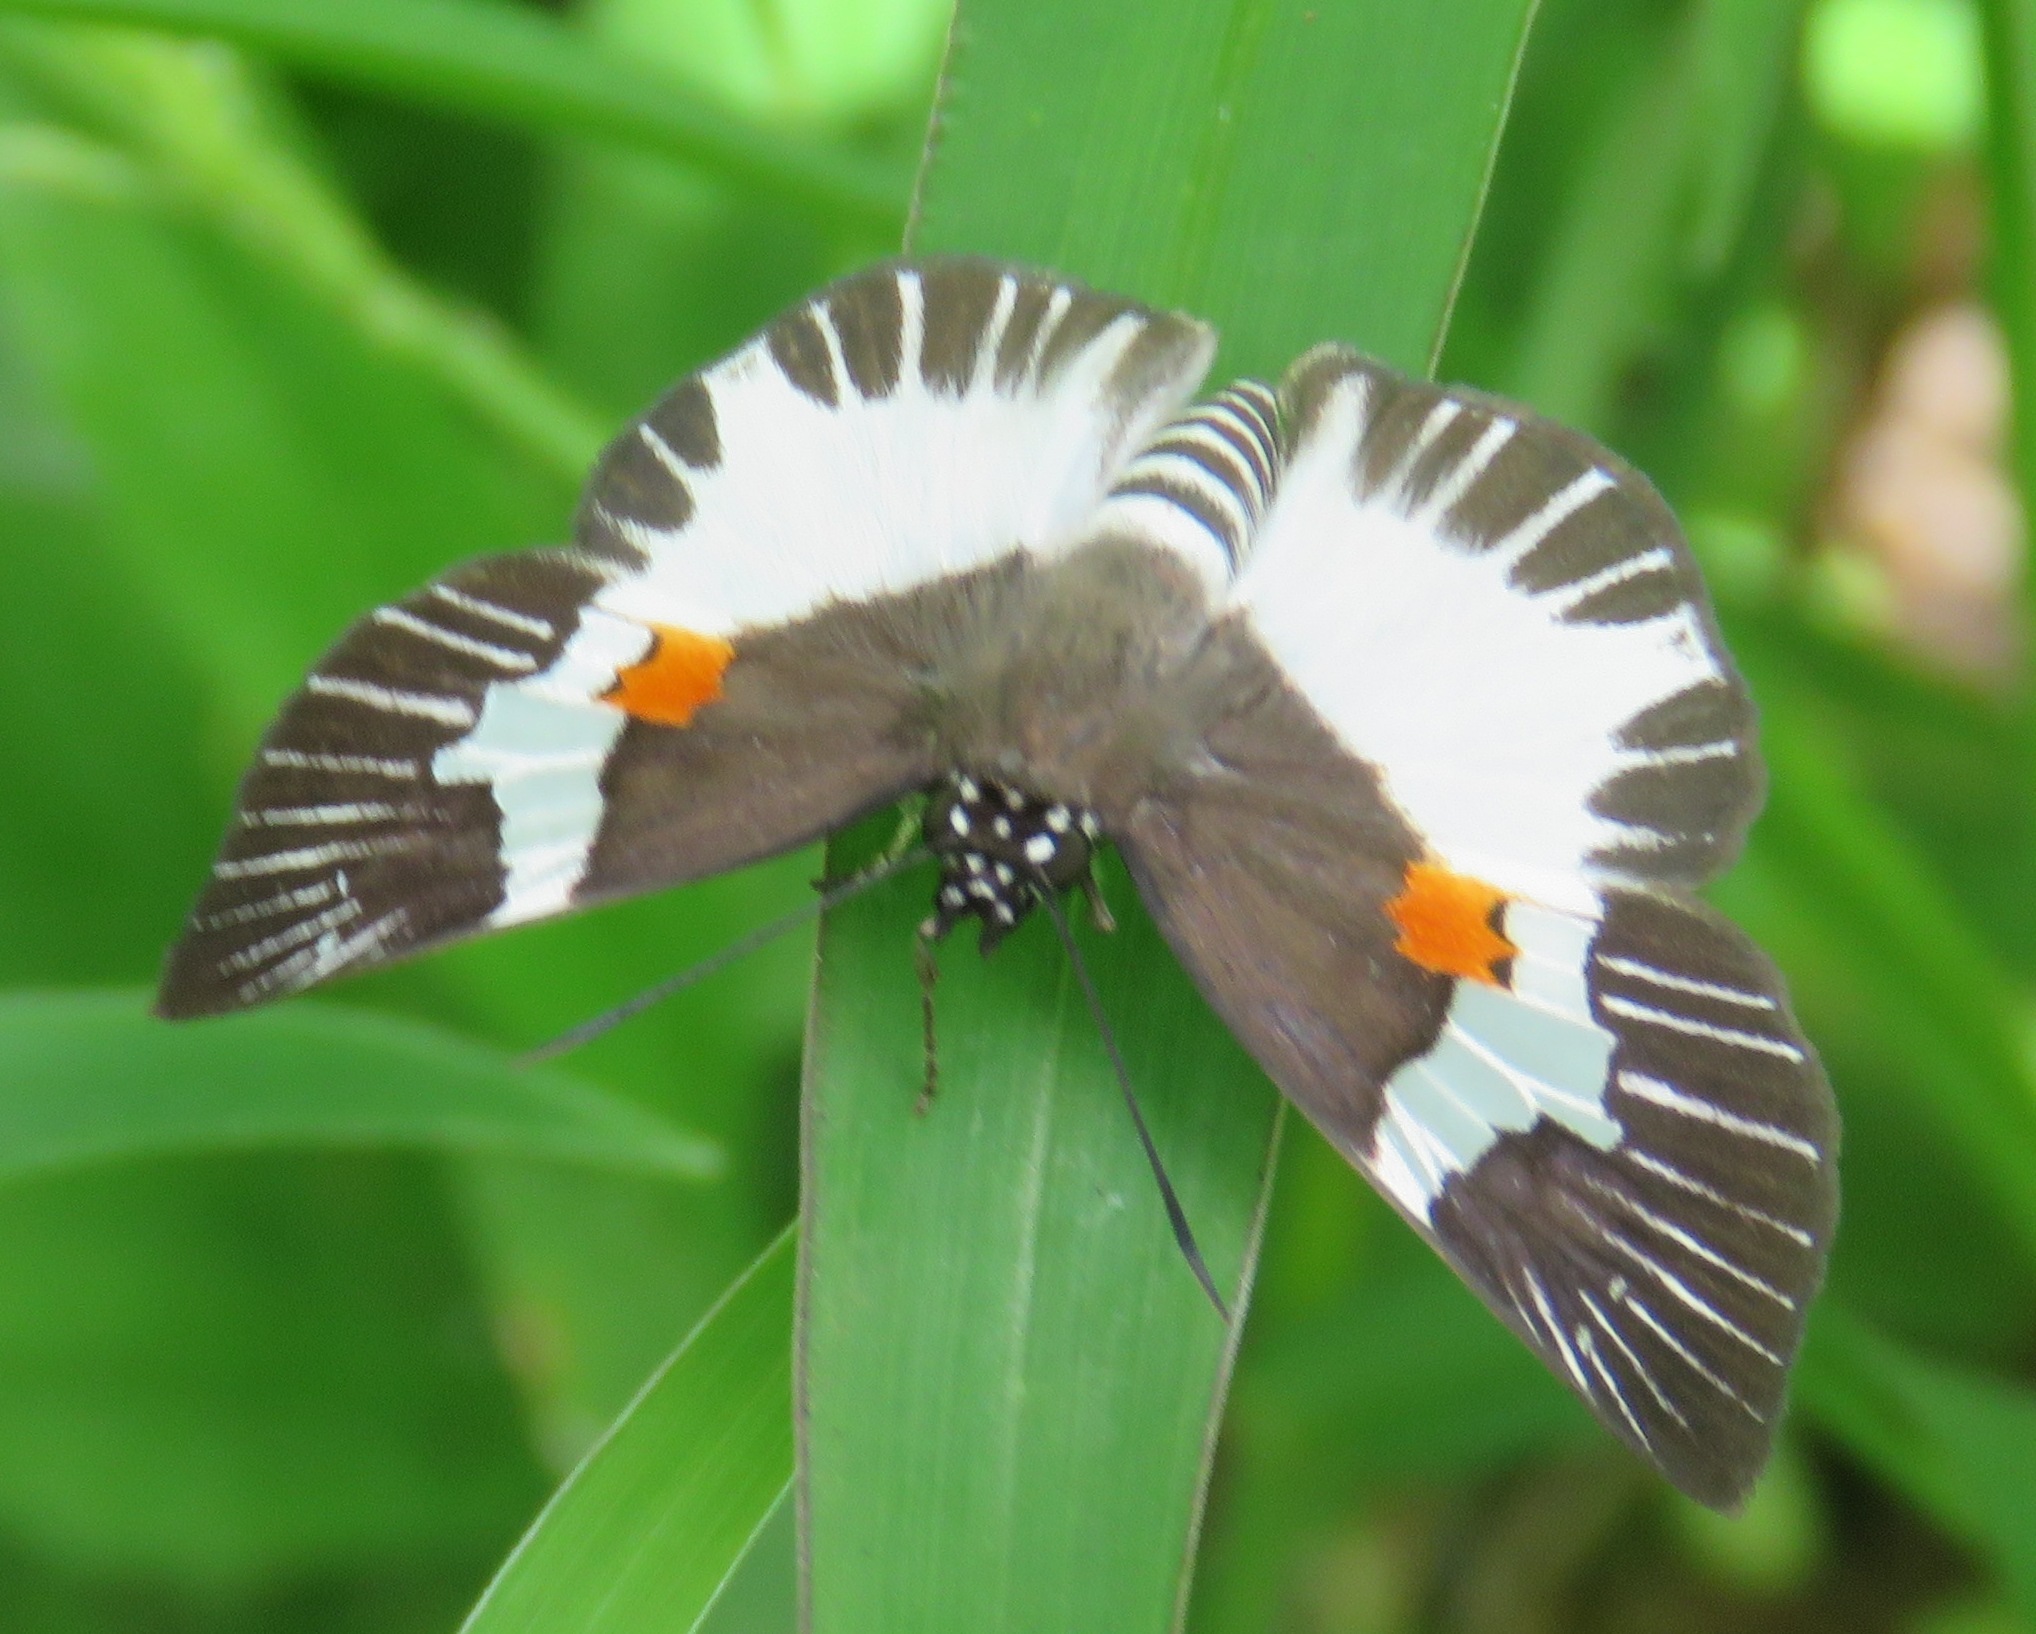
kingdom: Animalia
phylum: Arthropoda
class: Insecta
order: Lepidoptera
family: Hesperiidae
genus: Atarnes
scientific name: Atarnes sallei
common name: Orange-spotted skipper
